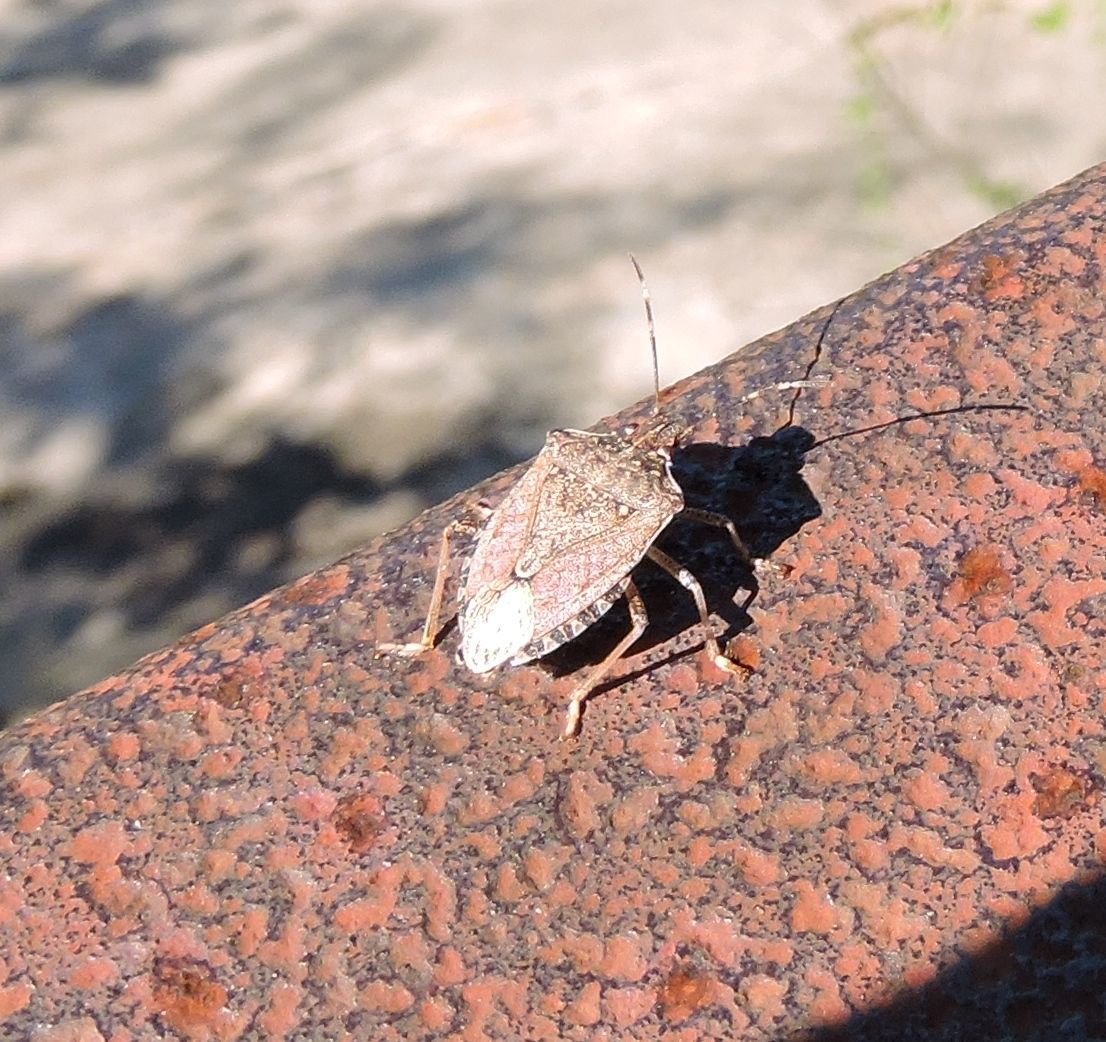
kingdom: Animalia
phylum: Arthropoda
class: Insecta
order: Hemiptera
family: Pentatomidae
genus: Halyomorpha
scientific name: Halyomorpha halys
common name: Brown marmorated stink bug
